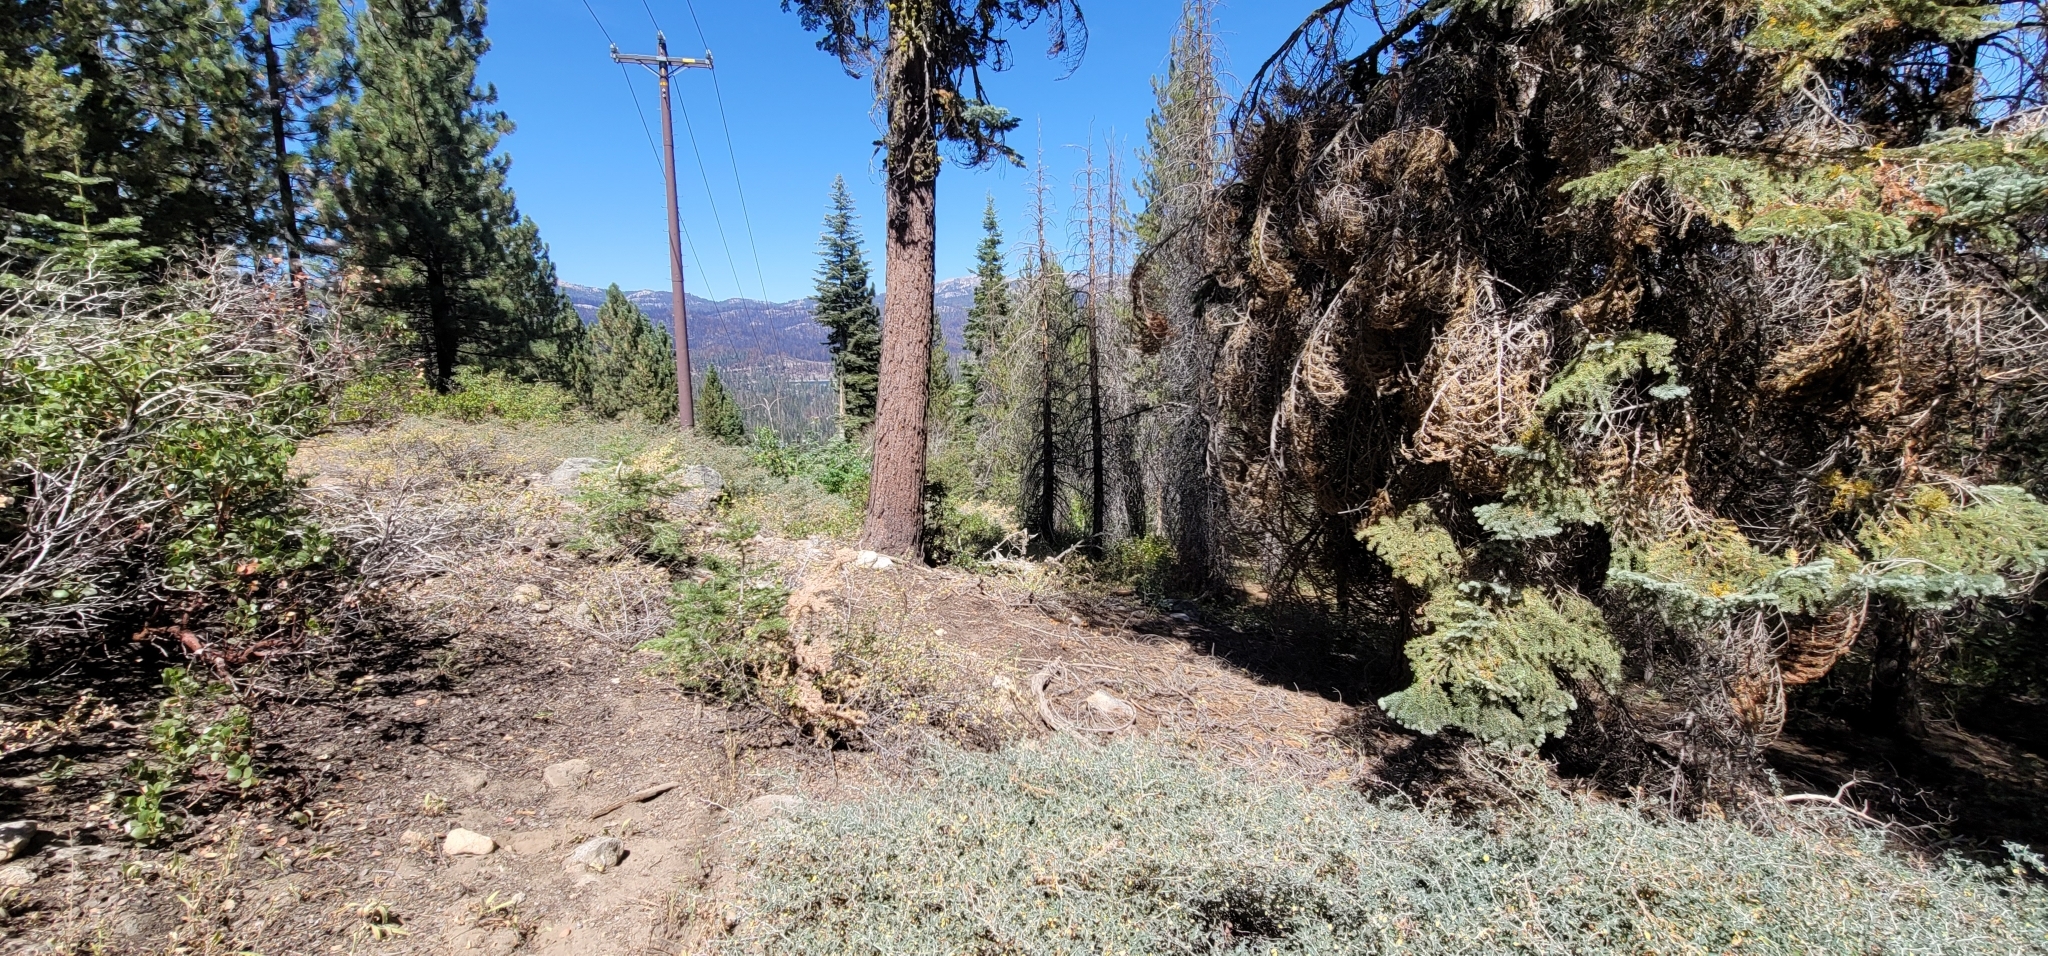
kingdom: Plantae
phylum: Tracheophyta
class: Magnoliopsida
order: Asterales
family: Asteraceae
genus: Hulsea
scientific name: Hulsea brevifolia
